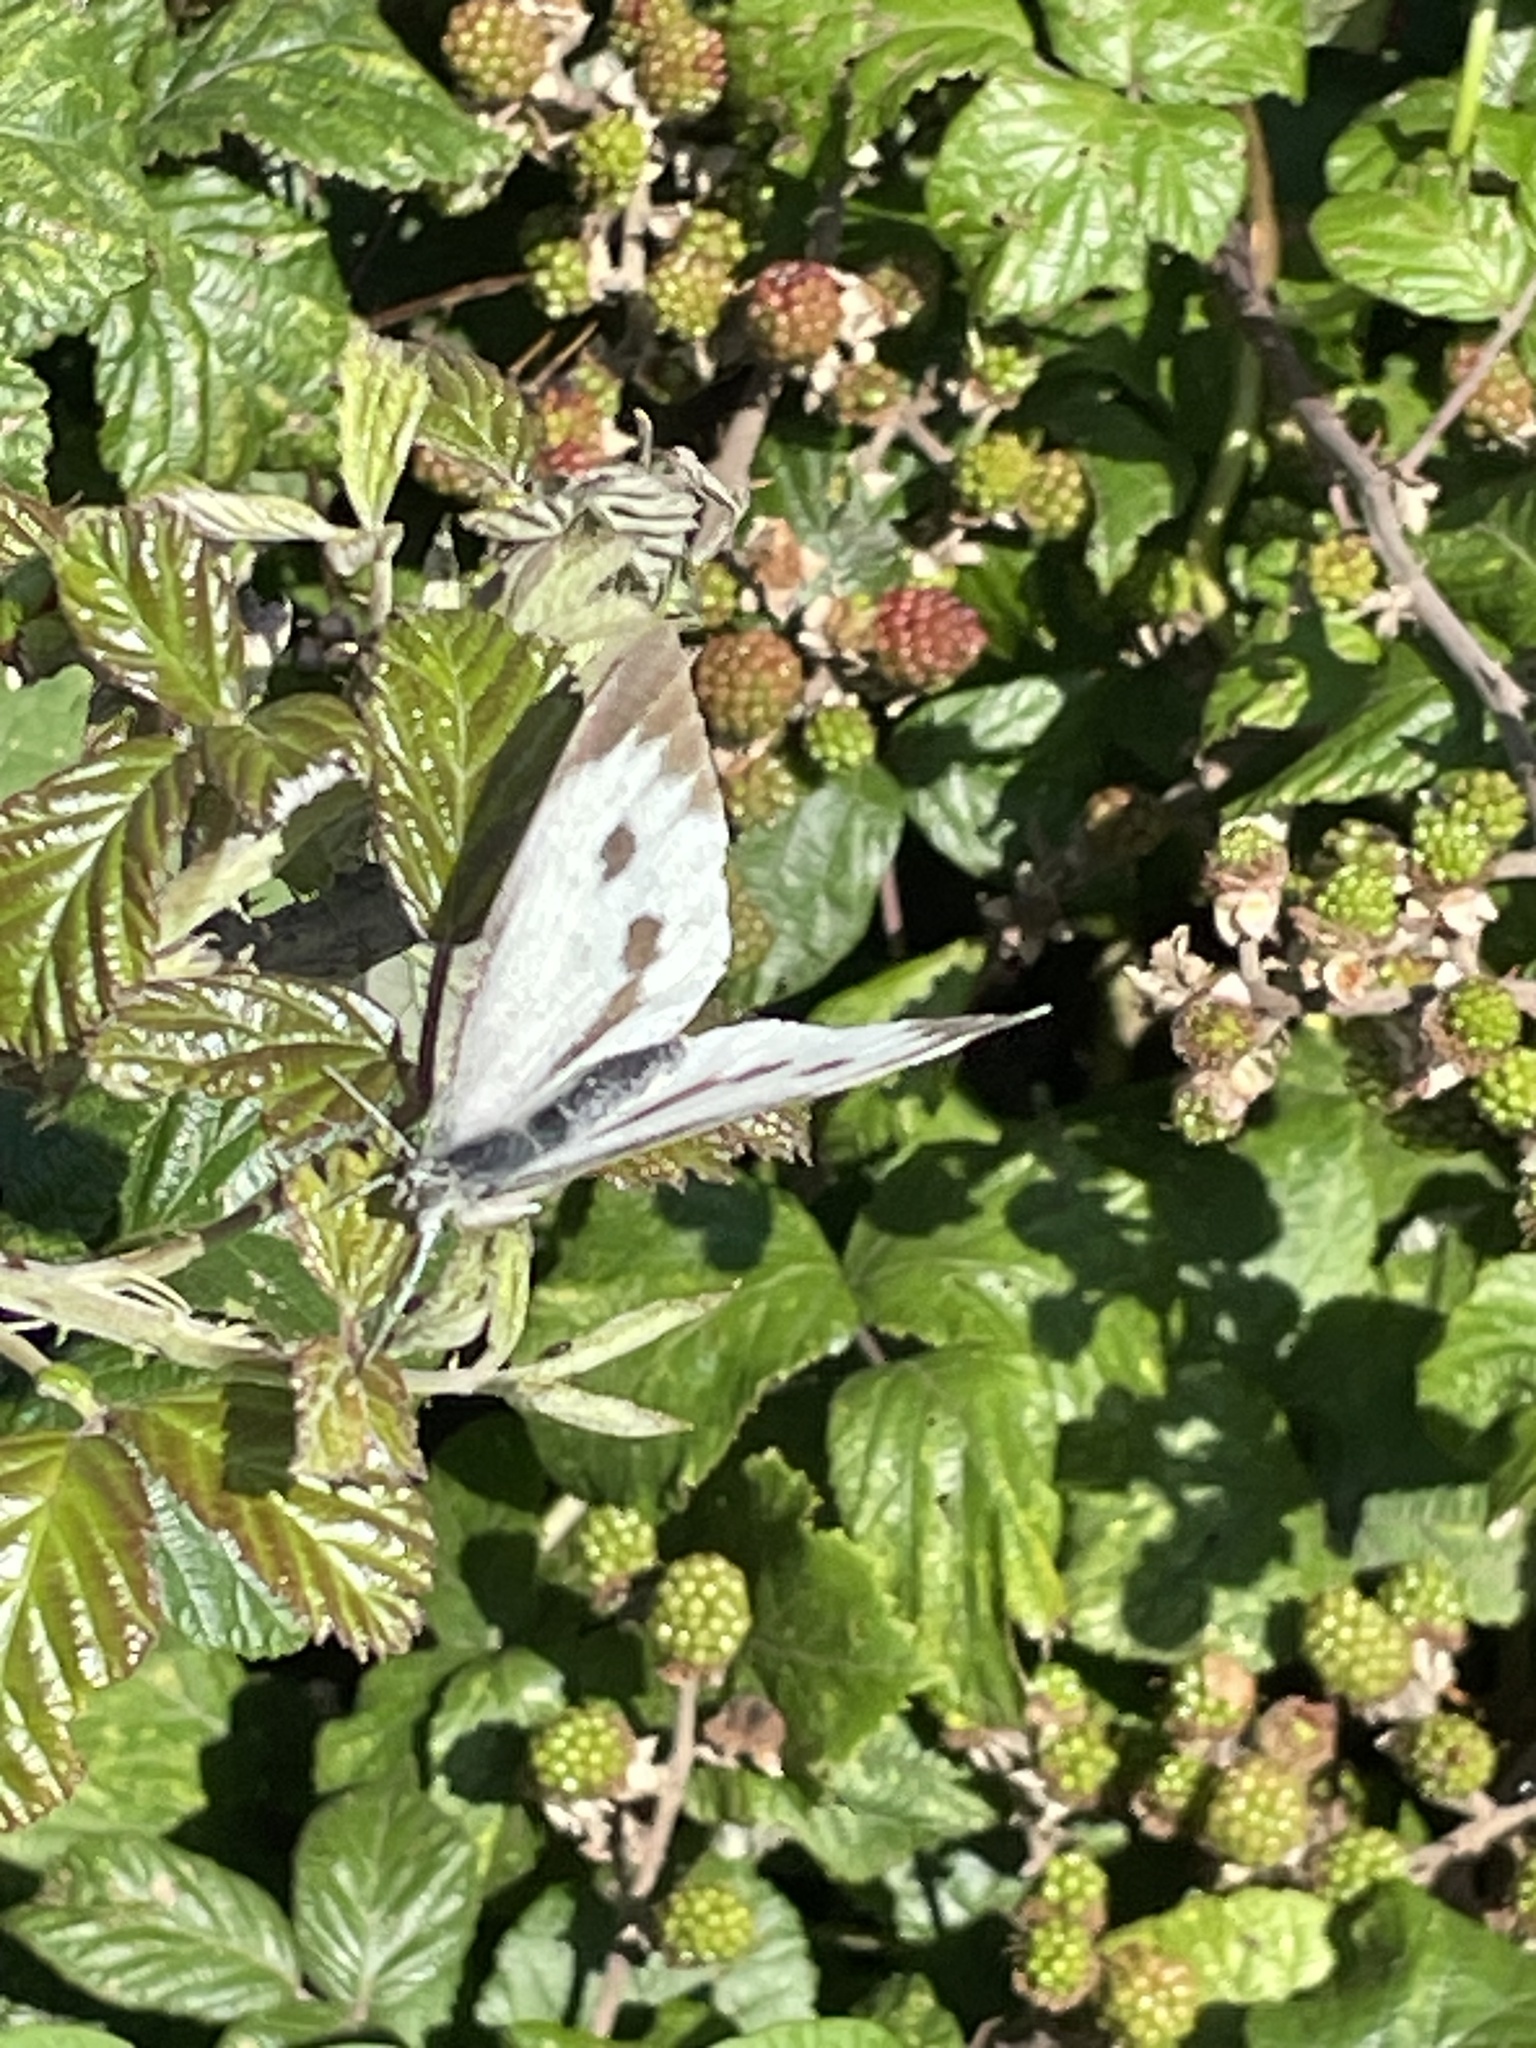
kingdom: Animalia
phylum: Arthropoda
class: Insecta
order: Lepidoptera
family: Pieridae
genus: Pieris
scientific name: Pieris brassicae
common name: Large white
